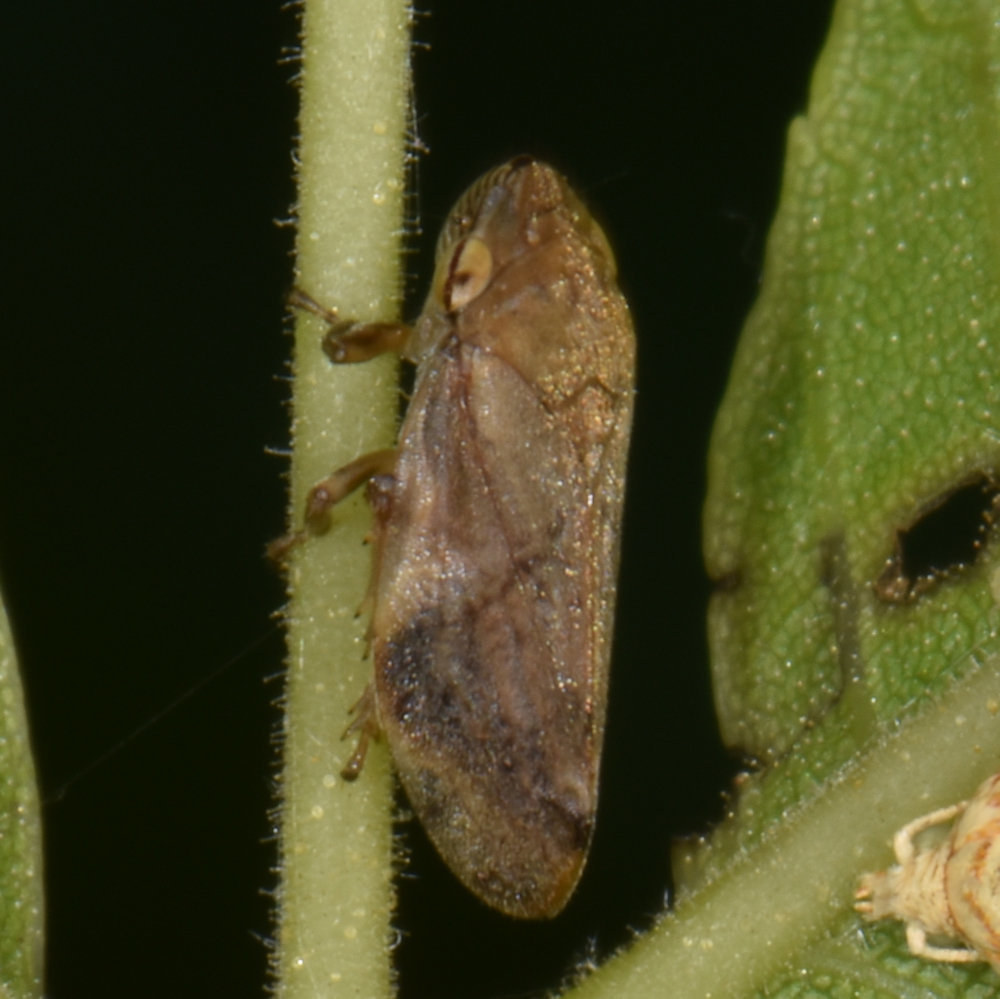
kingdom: Animalia
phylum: Arthropoda
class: Insecta
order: Hemiptera
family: Aphrophoridae
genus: Philaenus
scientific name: Philaenus spumarius
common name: Meadow spittlebug
